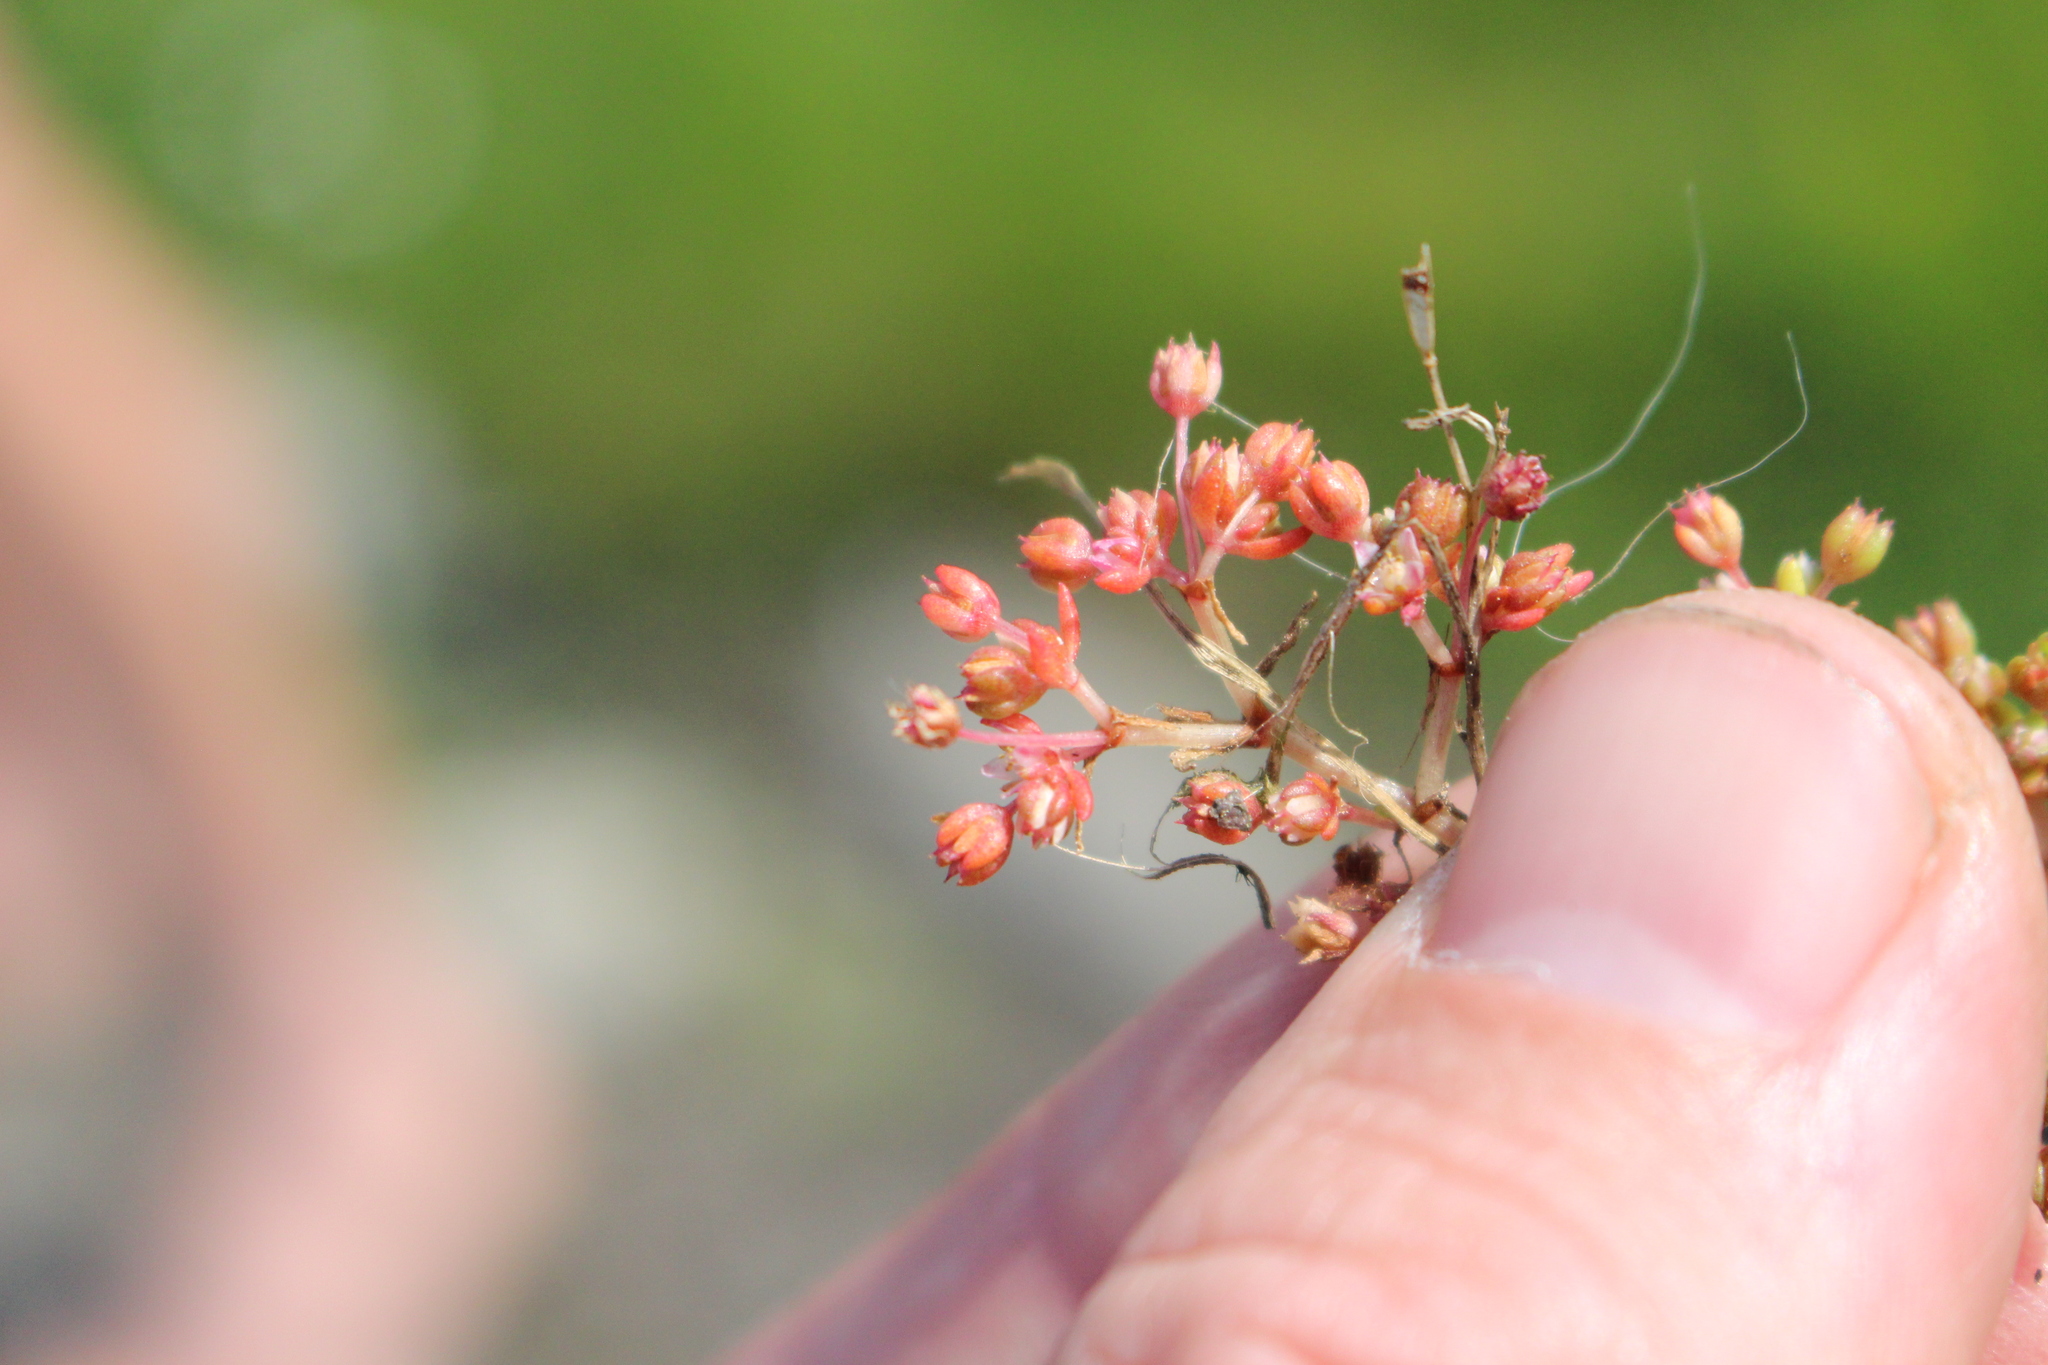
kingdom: Plantae
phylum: Tracheophyta
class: Magnoliopsida
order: Saxifragales
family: Crassulaceae
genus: Crassula
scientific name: Crassula decumbens
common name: Scilly pigmyweed
